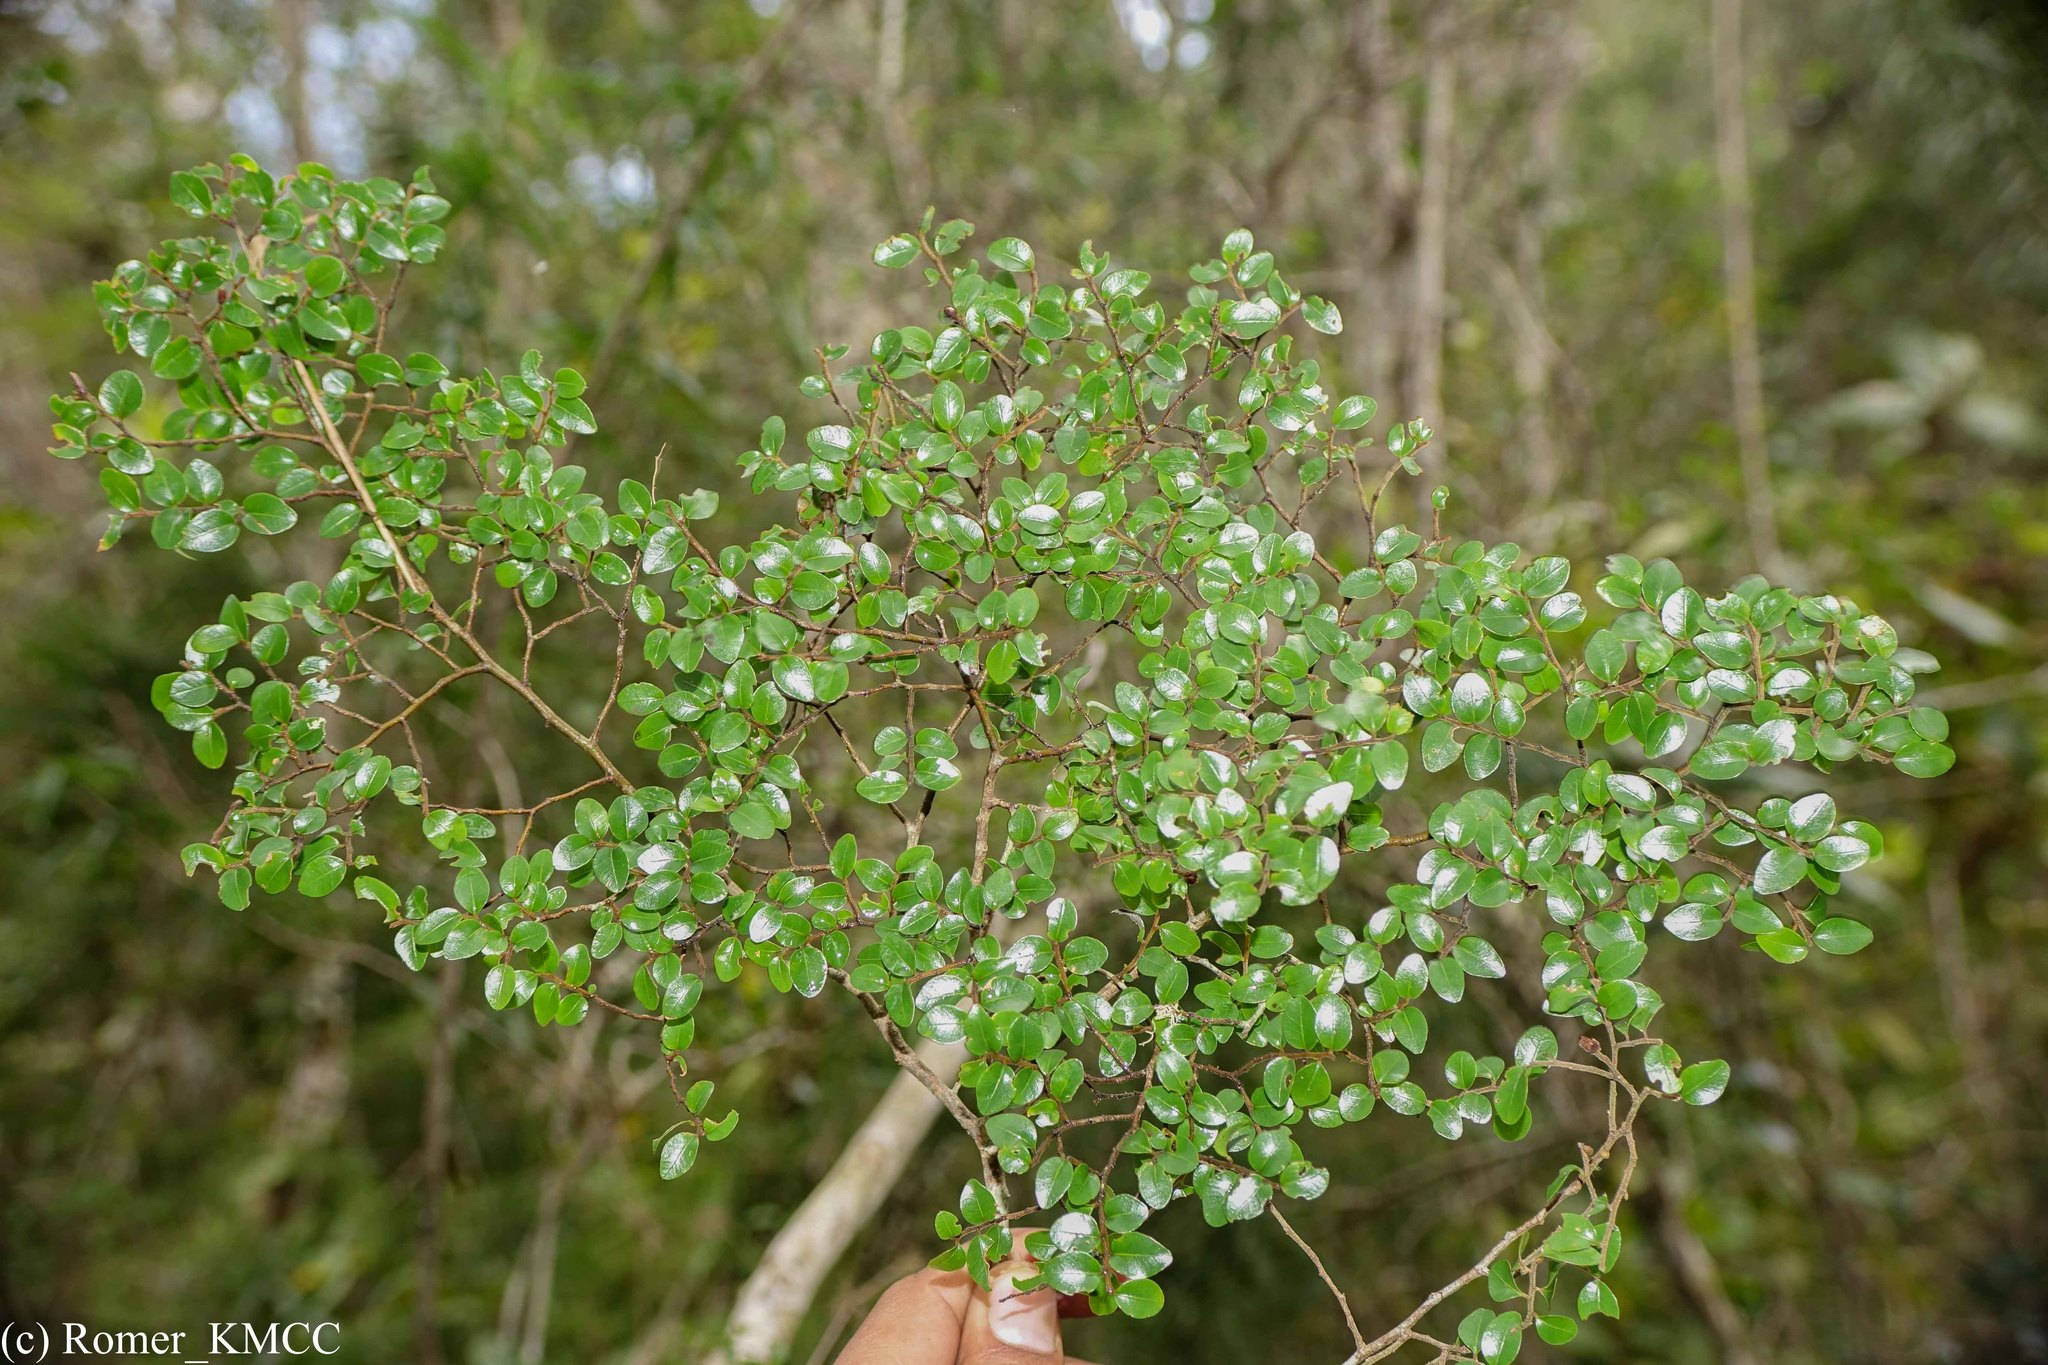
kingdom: Plantae
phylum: Tracheophyta
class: Magnoliopsida
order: Malvales
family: Sarcolaenaceae
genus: Leptolaena
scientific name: Leptolaena pauciflora
